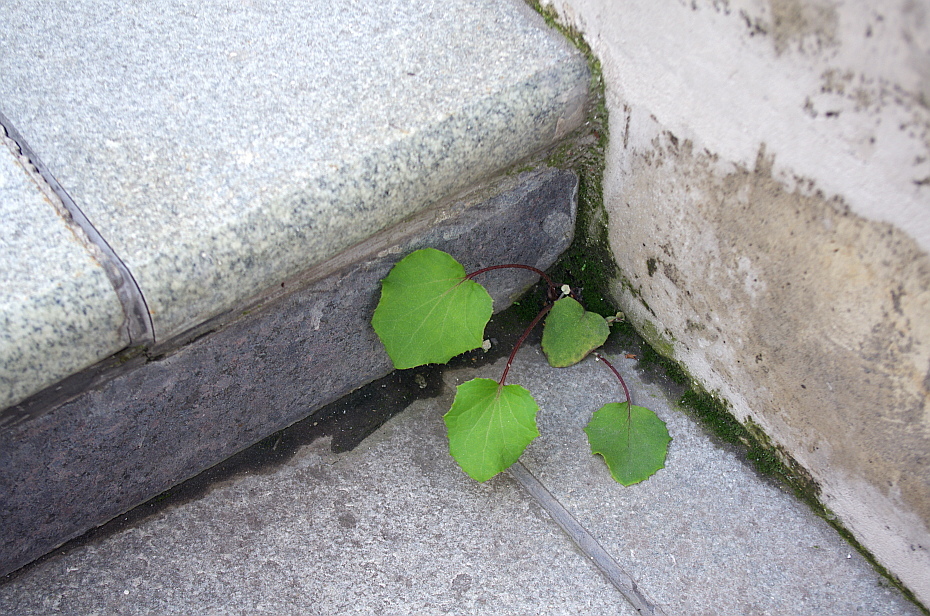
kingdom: Plantae
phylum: Tracheophyta
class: Magnoliopsida
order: Asterales
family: Asteraceae
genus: Tussilago
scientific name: Tussilago farfara
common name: Coltsfoot
